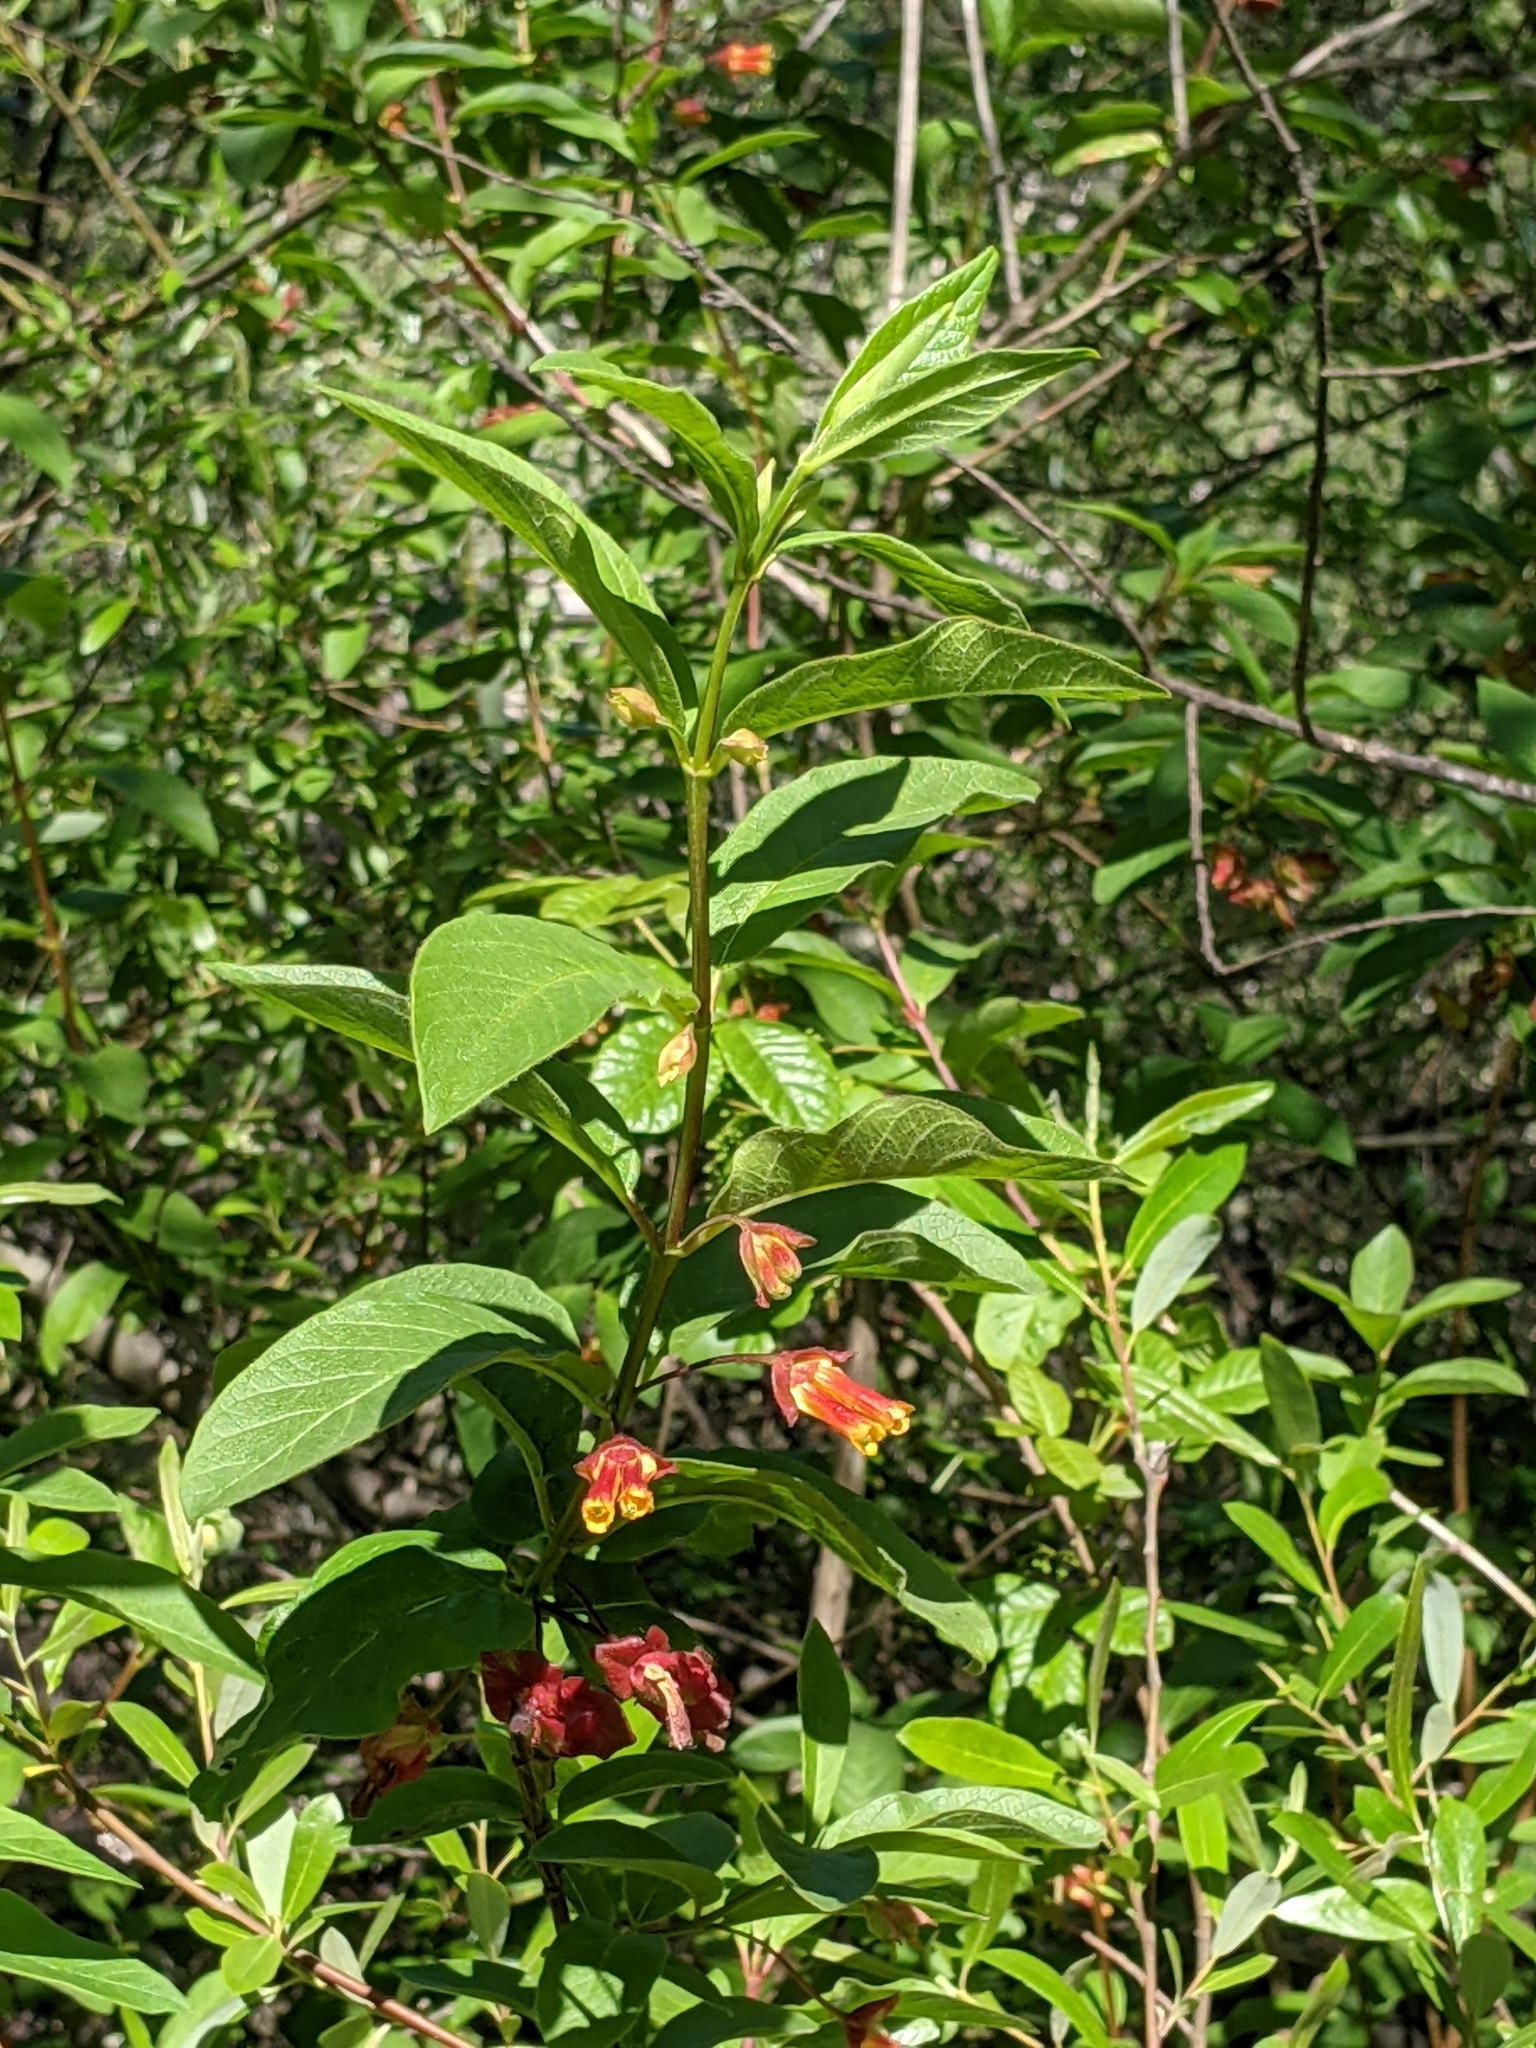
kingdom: Plantae
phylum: Tracheophyta
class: Magnoliopsida
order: Dipsacales
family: Caprifoliaceae
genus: Lonicera
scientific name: Lonicera involucrata
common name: Californian honeysuckle
